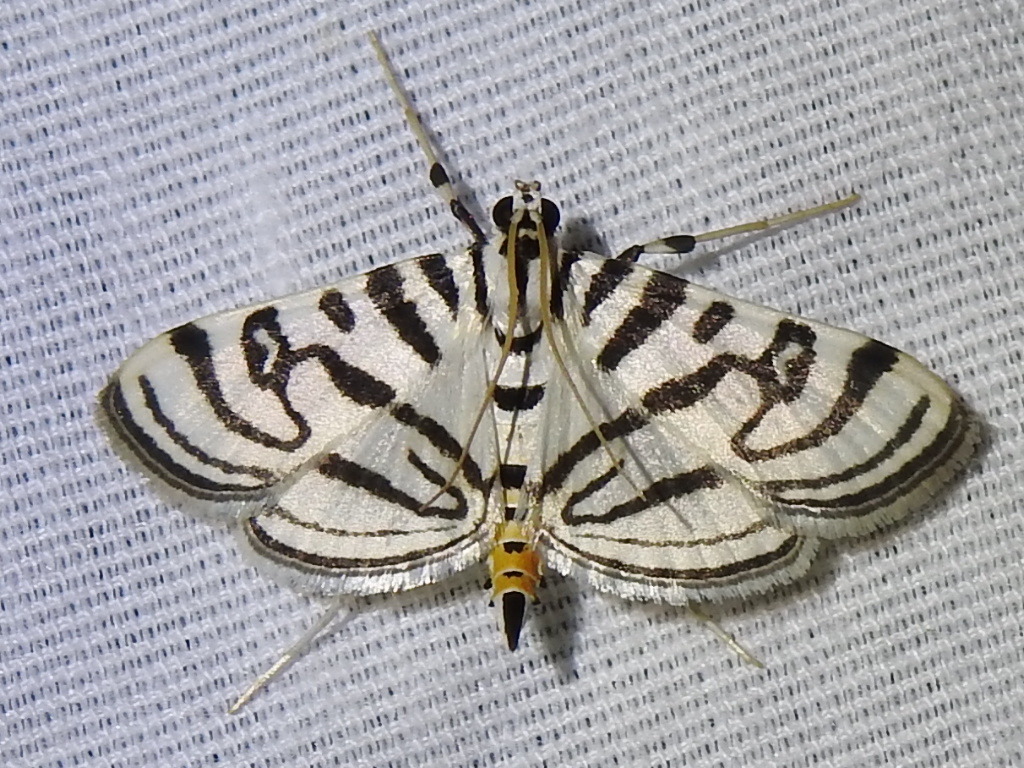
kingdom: Animalia
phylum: Arthropoda
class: Insecta
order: Lepidoptera
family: Crambidae
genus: Conchylodes
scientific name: Conchylodes ovulalis
